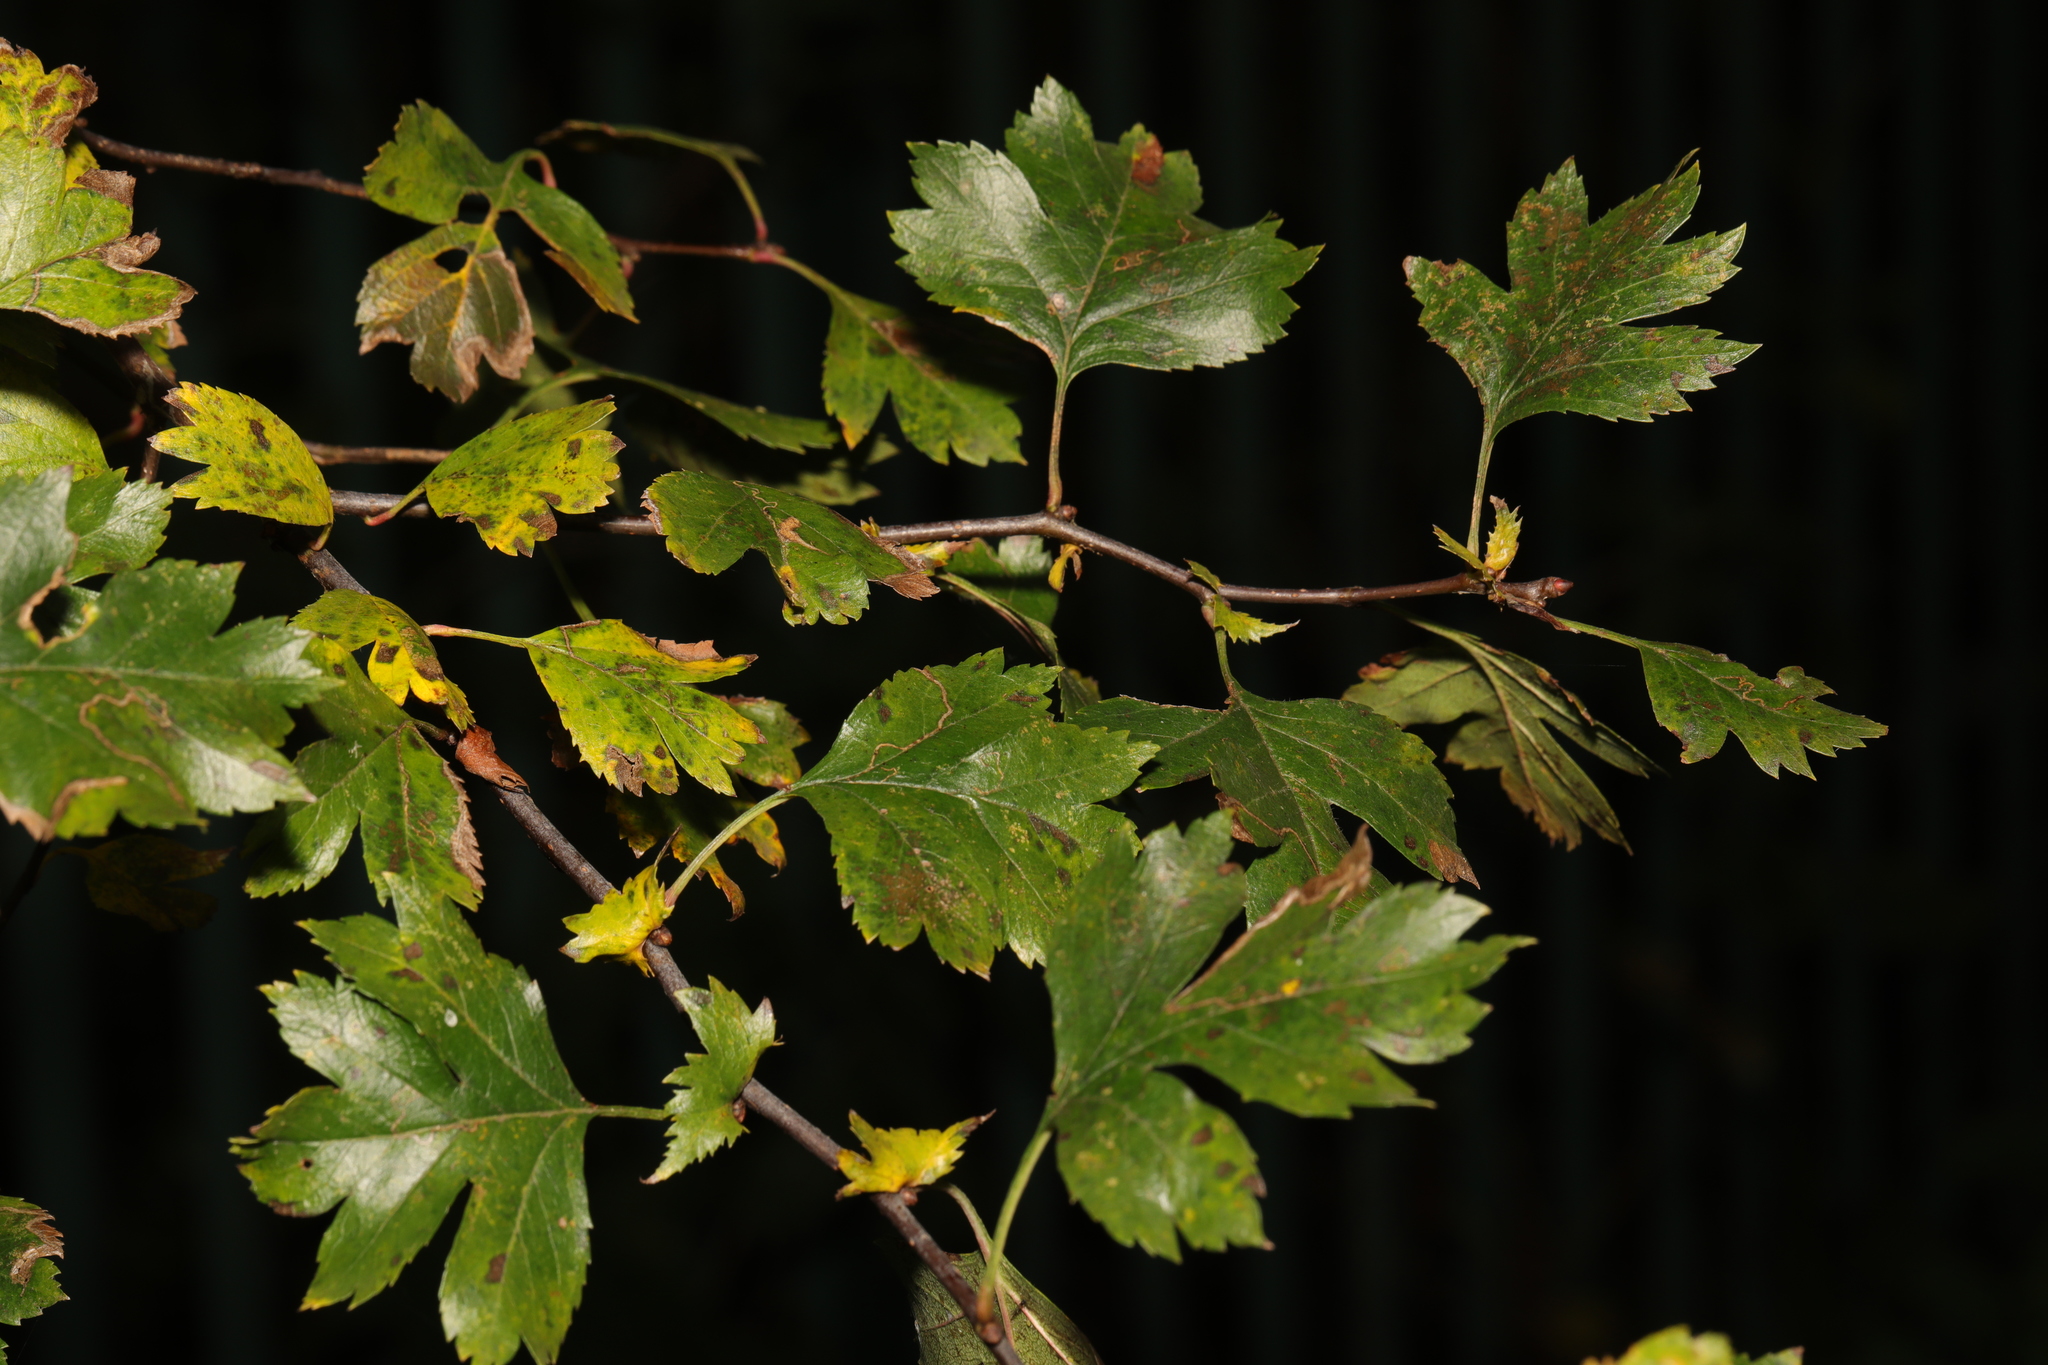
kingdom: Plantae
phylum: Tracheophyta
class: Magnoliopsida
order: Rosales
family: Rosaceae
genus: Crataegus
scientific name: Crataegus monogyna
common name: Hawthorn
